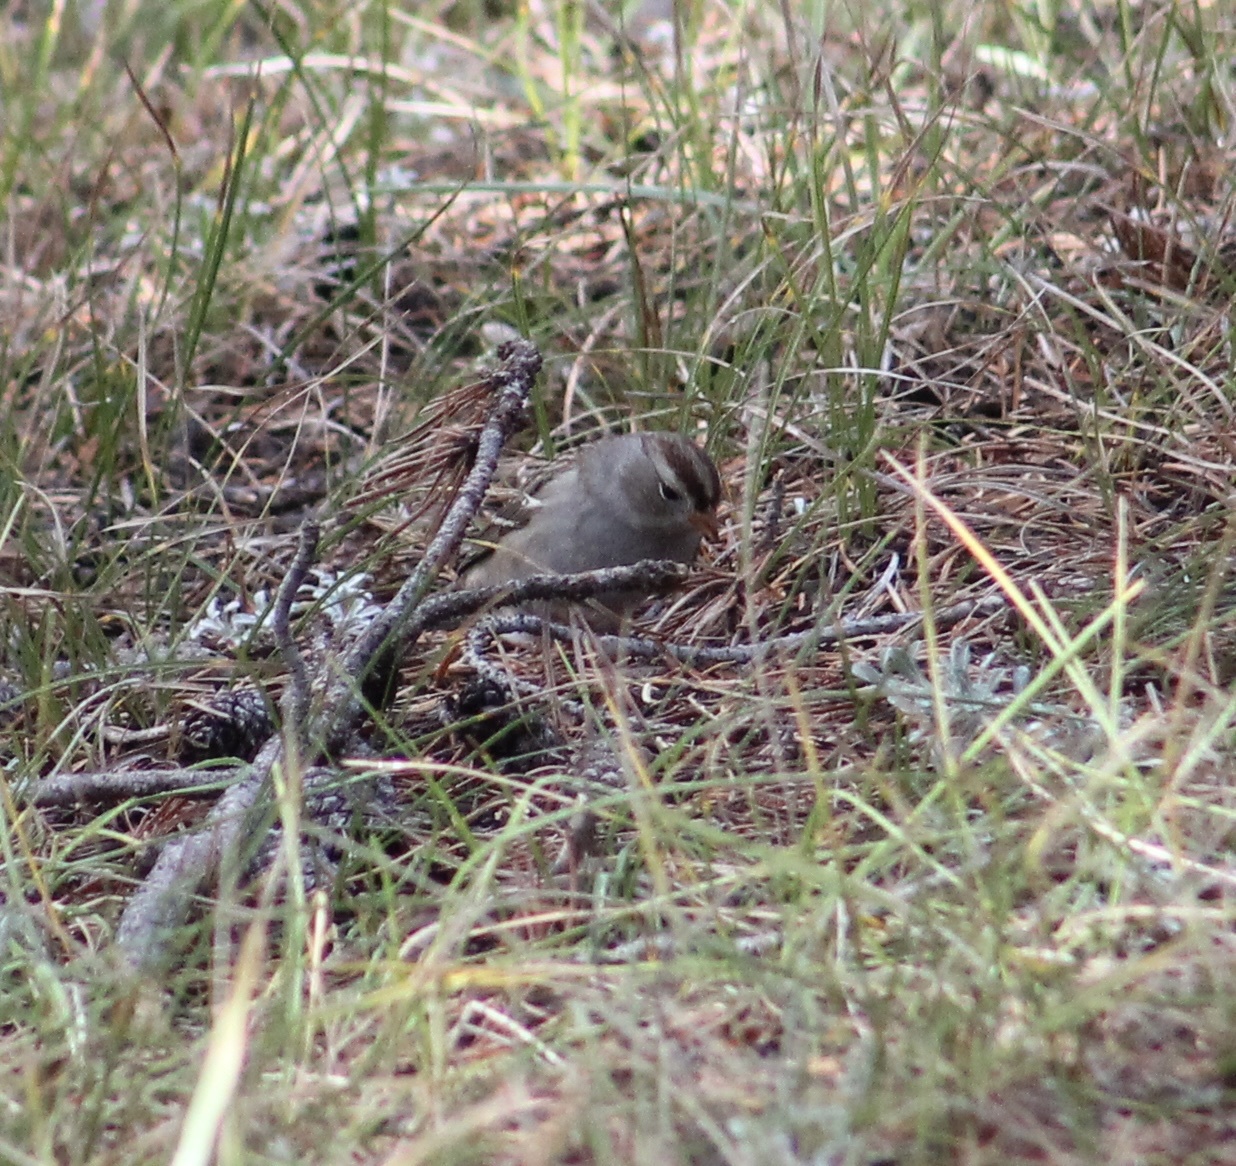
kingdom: Animalia
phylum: Chordata
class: Aves
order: Passeriformes
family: Passerellidae
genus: Zonotrichia
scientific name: Zonotrichia leucophrys
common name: White-crowned sparrow
